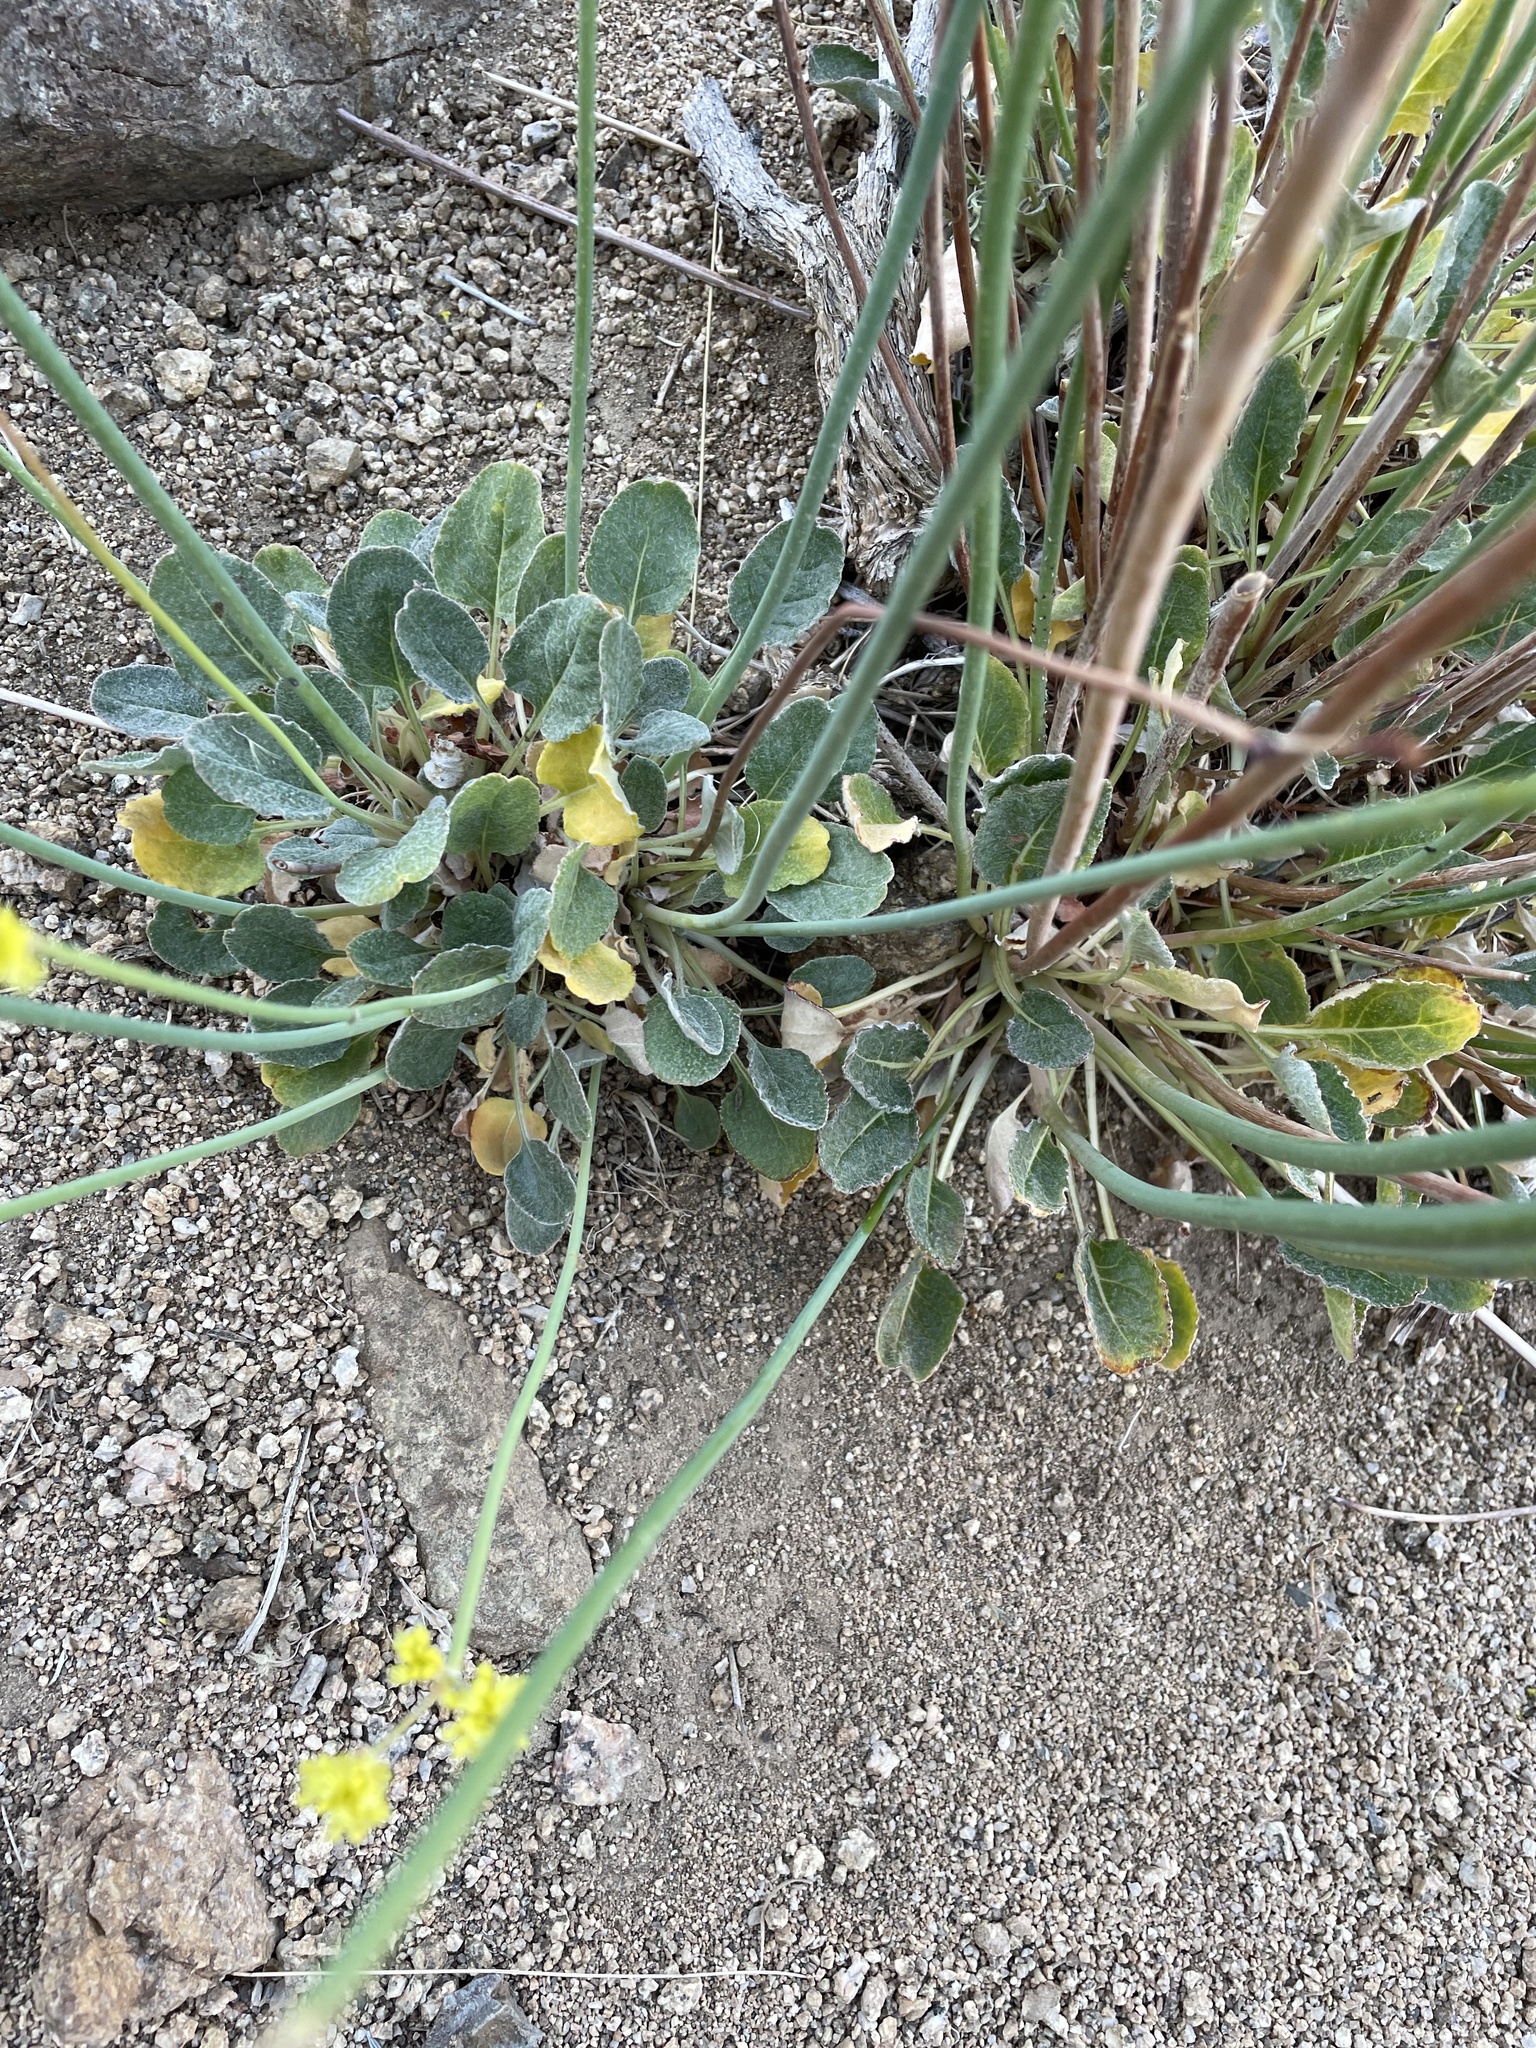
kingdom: Plantae
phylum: Tracheophyta
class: Magnoliopsida
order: Caryophyllales
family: Polygonaceae
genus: Eriogonum
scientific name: Eriogonum nudum
